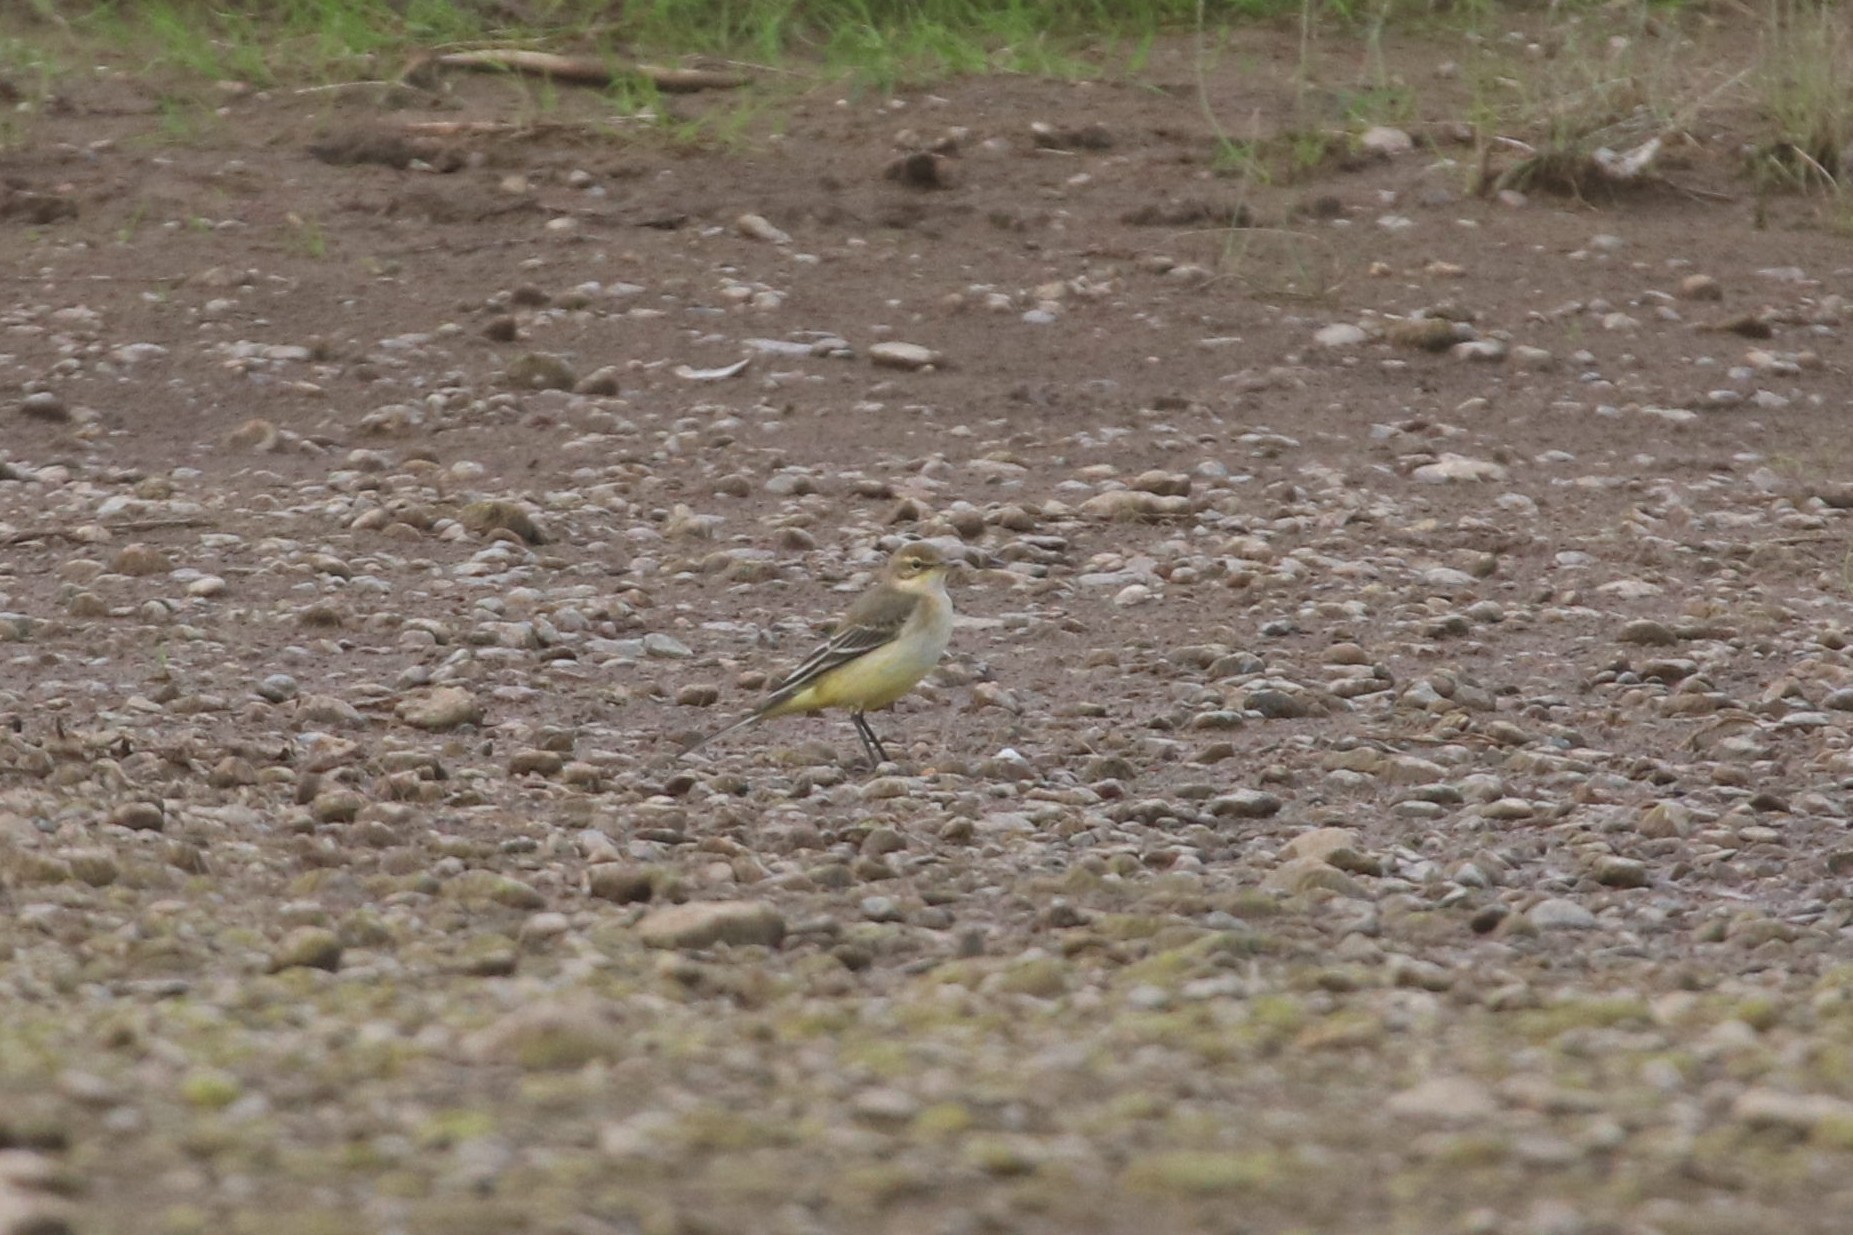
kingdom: Animalia
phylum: Chordata
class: Aves
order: Passeriformes
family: Motacillidae
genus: Motacilla
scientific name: Motacilla flava
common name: Western yellow wagtail
